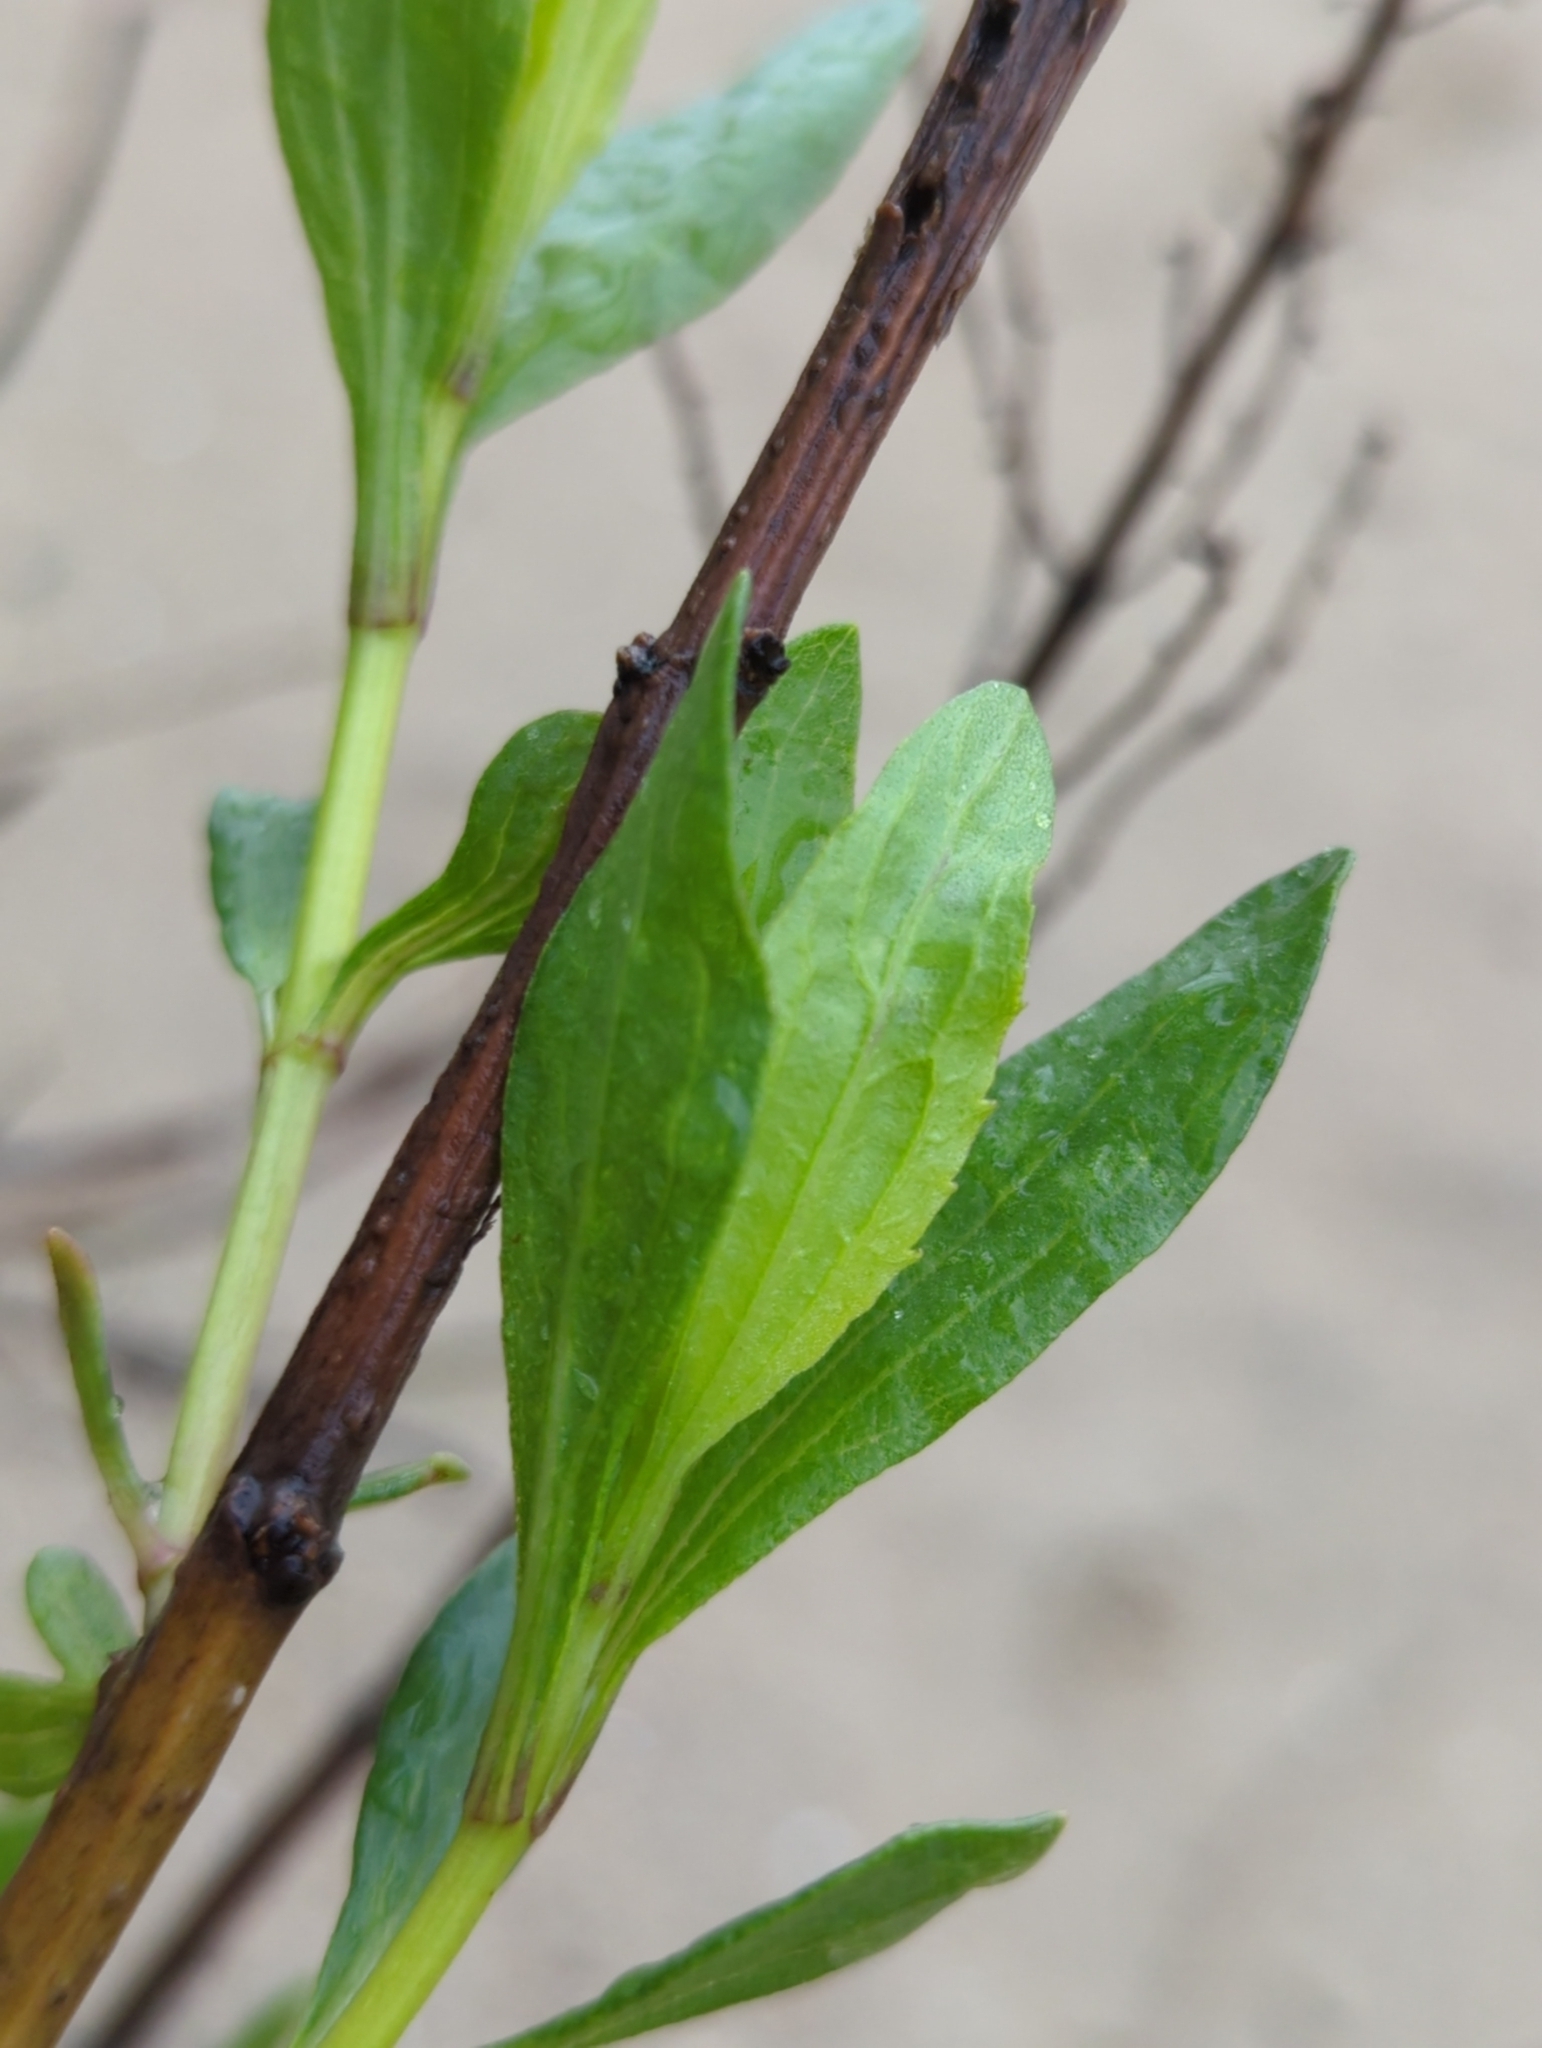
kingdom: Plantae
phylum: Tracheophyta
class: Magnoliopsida
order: Asterales
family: Asteraceae
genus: Iva
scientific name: Iva frutescens
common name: Big-leaved marsh-elder
